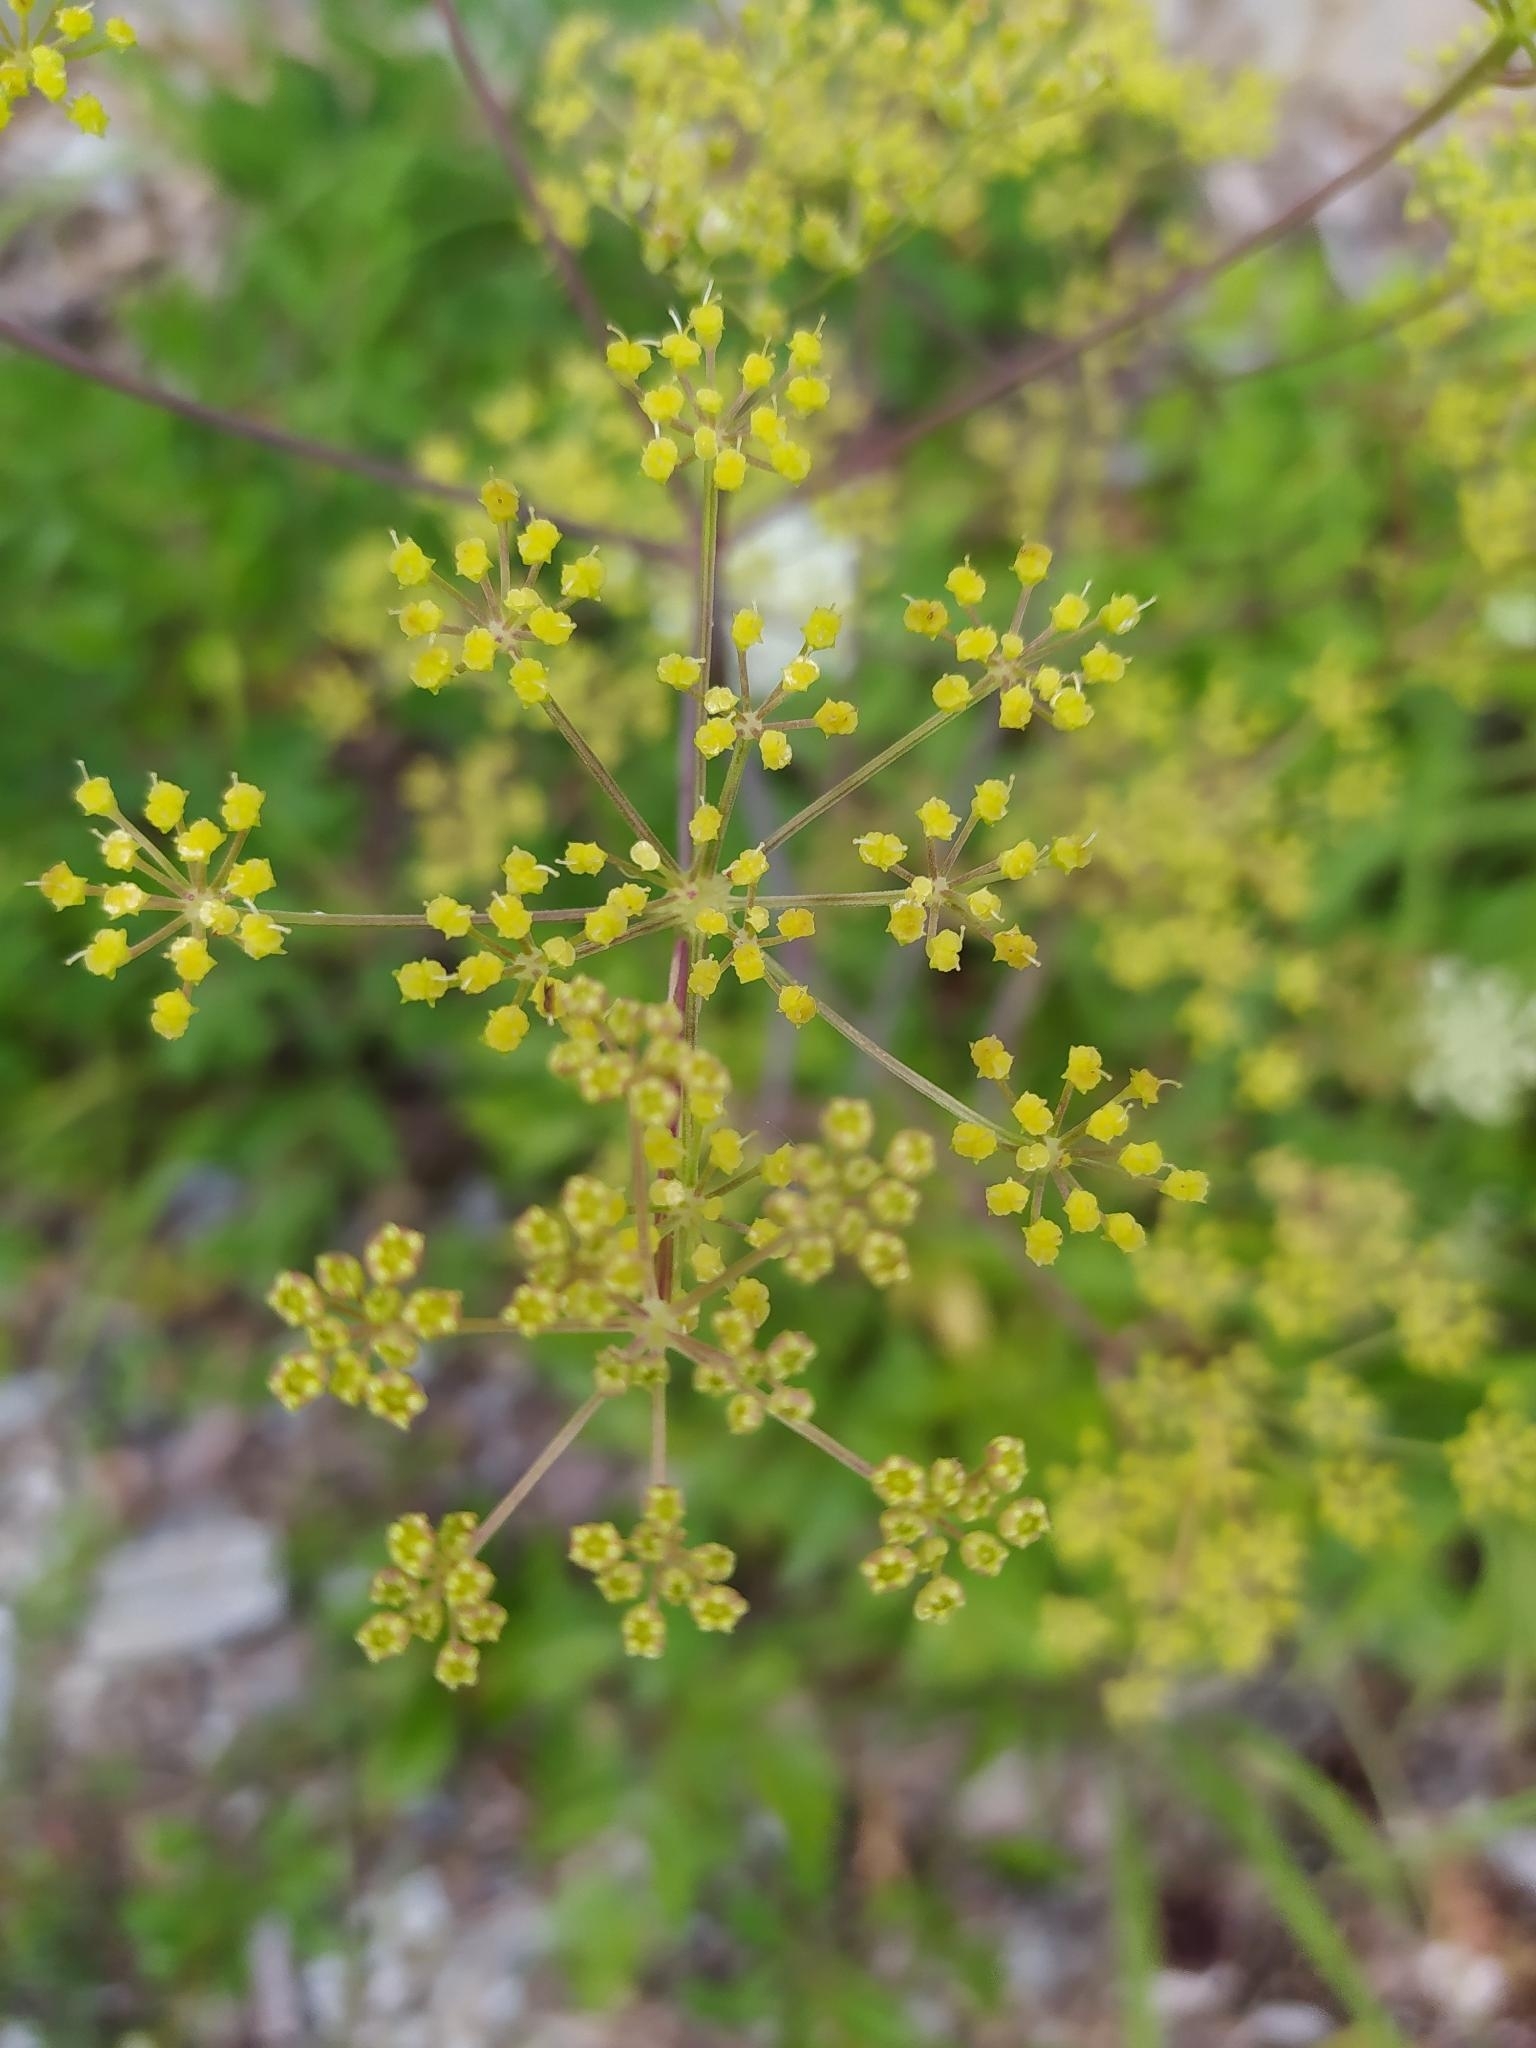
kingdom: Plantae
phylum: Tracheophyta
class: Magnoliopsida
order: Apiales
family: Apiaceae
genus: Peucedanum
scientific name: Peucedanum verticillare
